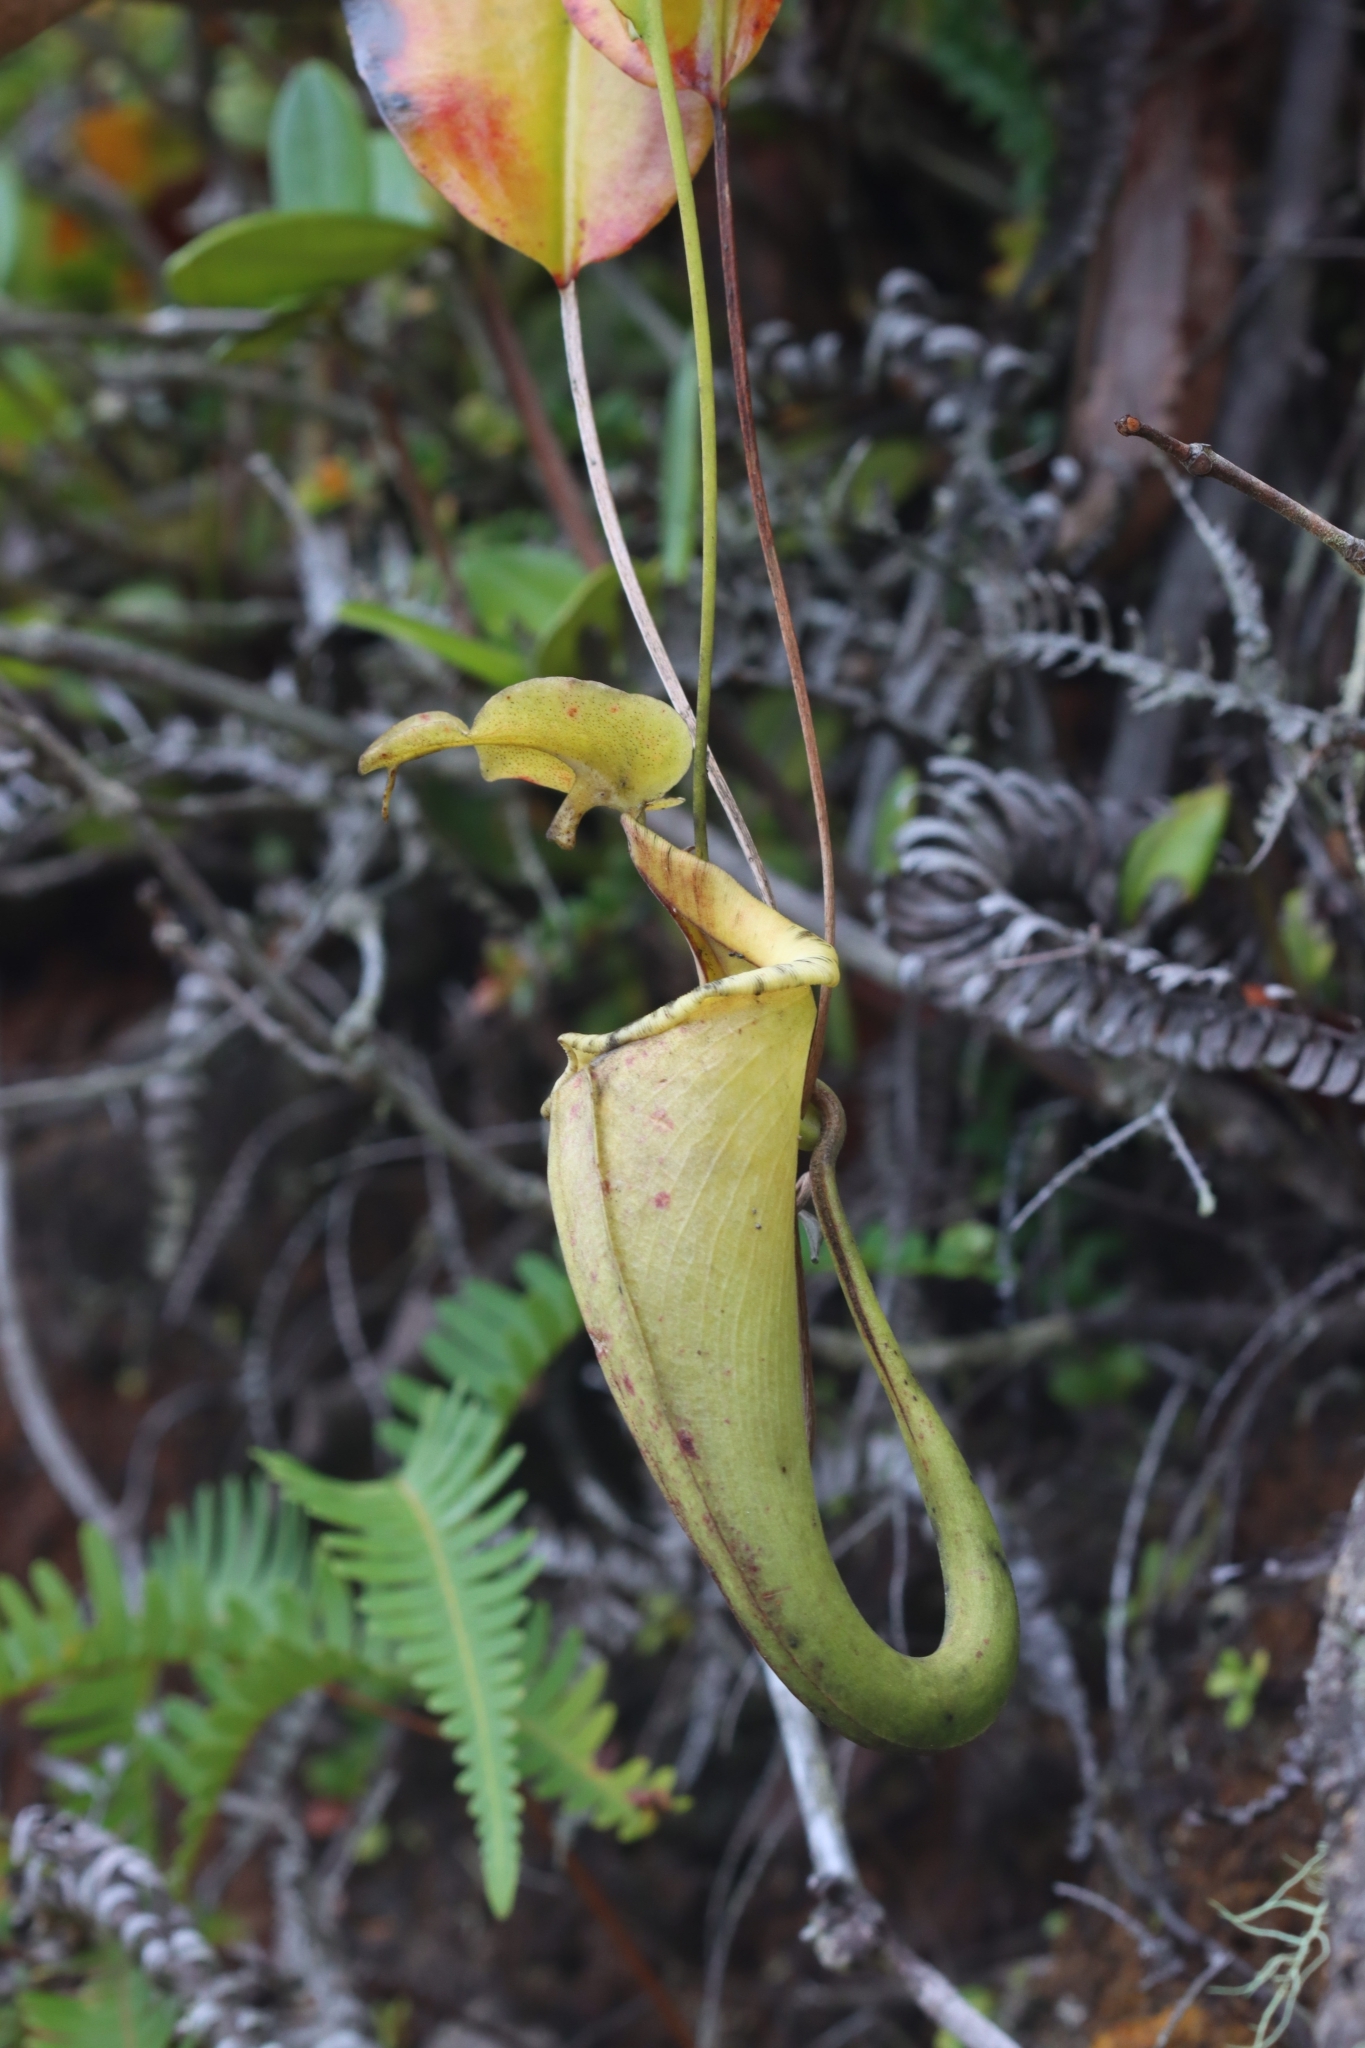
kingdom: Plantae
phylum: Tracheophyta
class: Magnoliopsida
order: Caryophyllales
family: Nepenthaceae
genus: Nepenthes
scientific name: Nepenthes maxima
